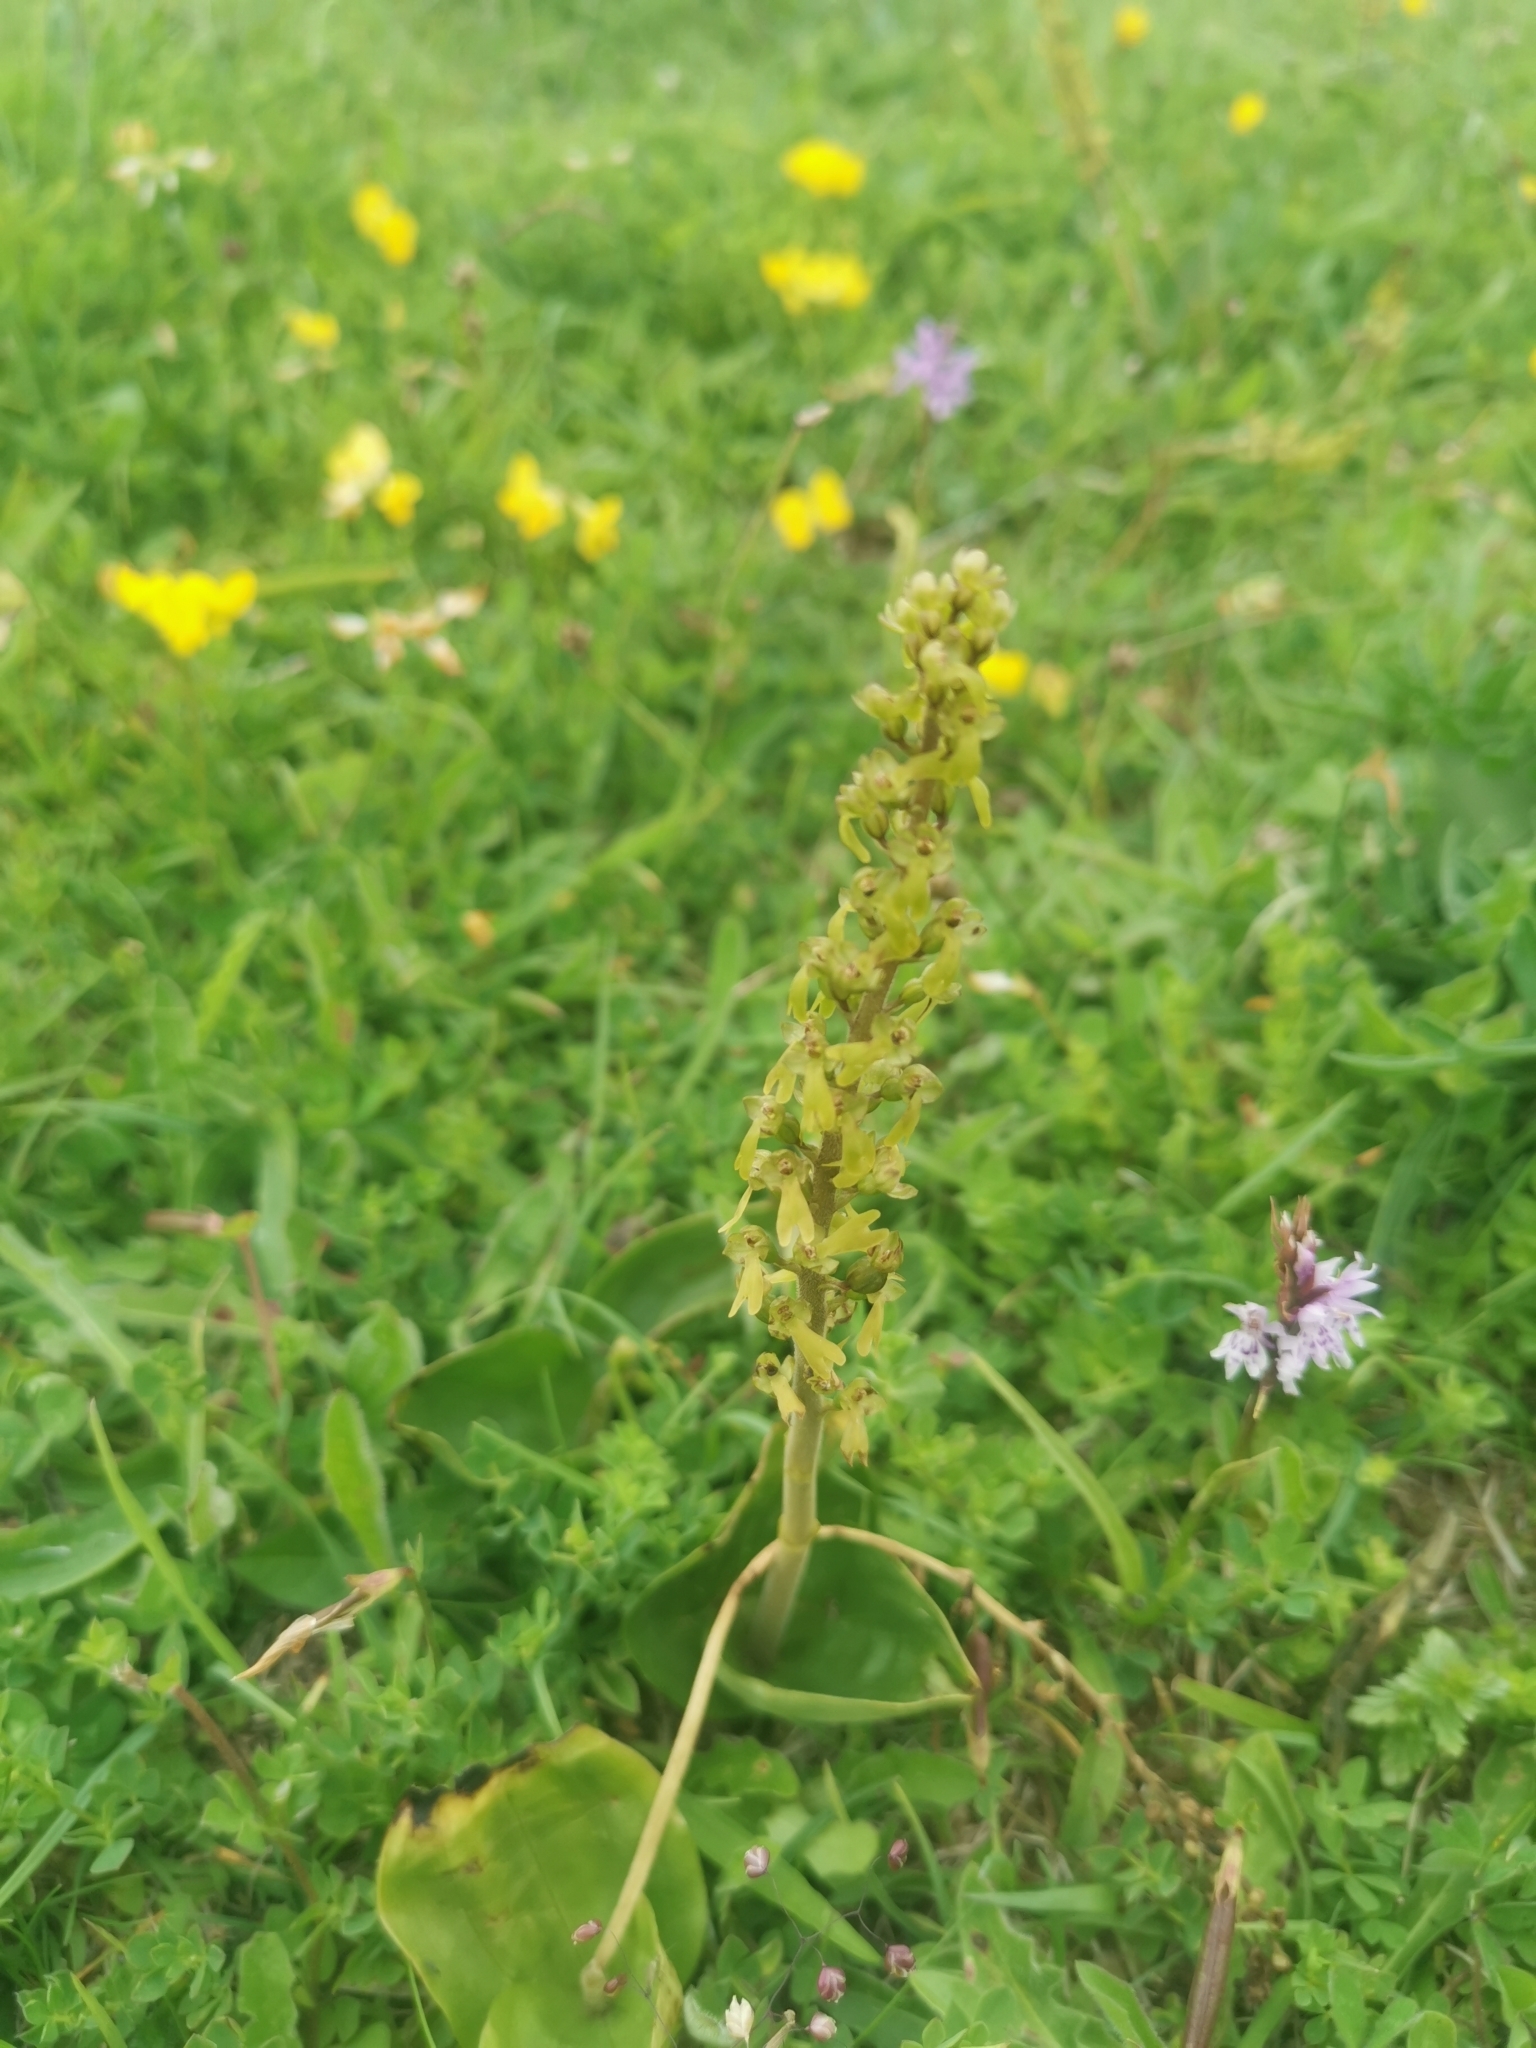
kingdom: Plantae
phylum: Tracheophyta
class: Liliopsida
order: Asparagales
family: Orchidaceae
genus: Neottia
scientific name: Neottia ovata
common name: Common twayblade
